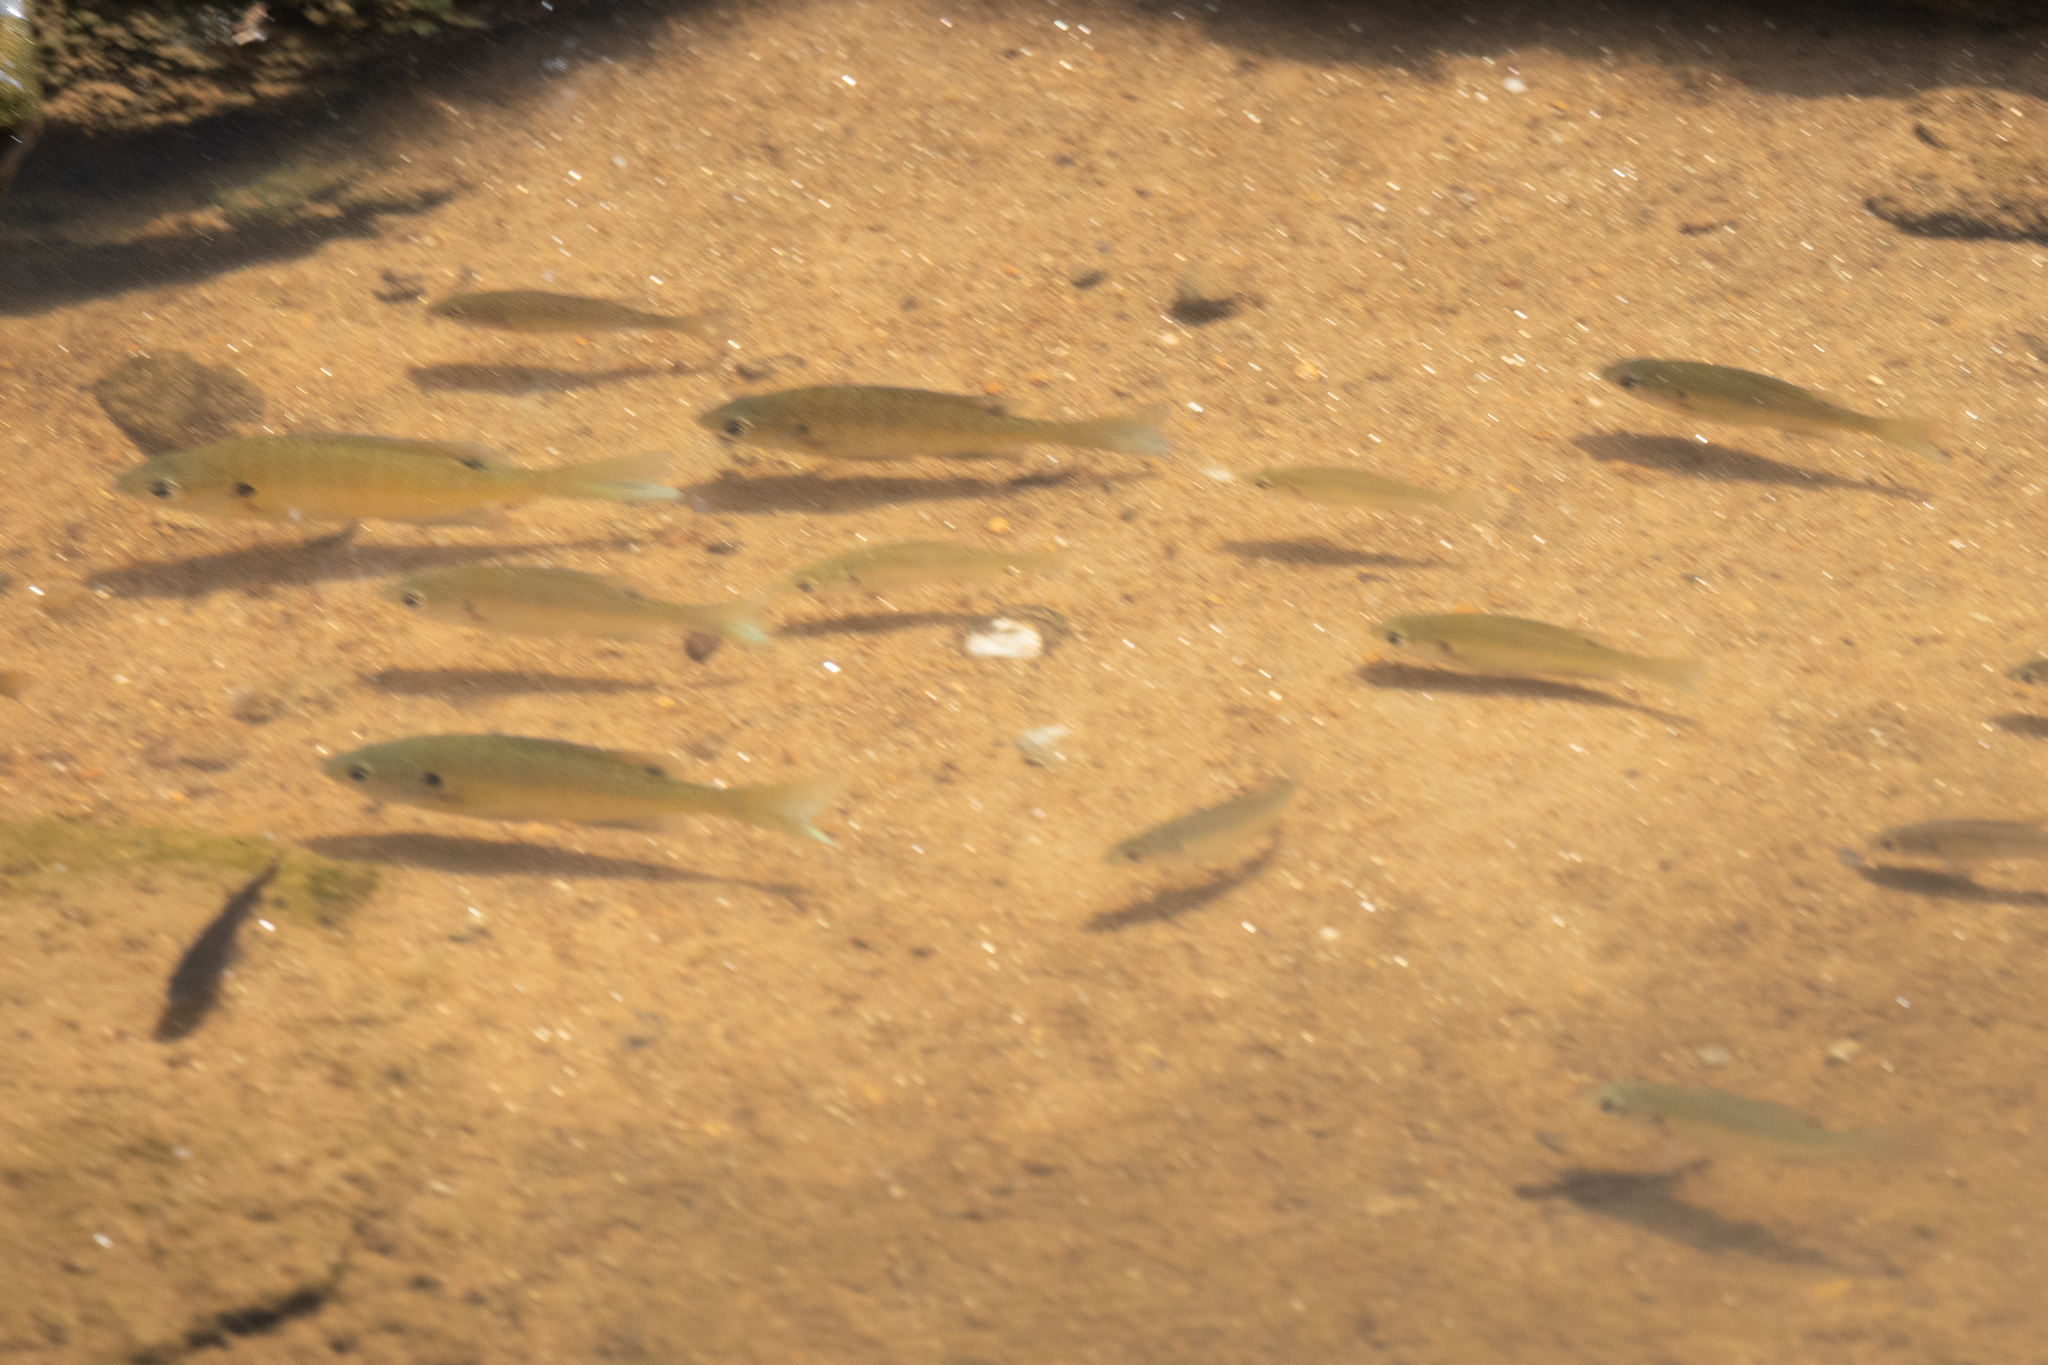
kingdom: Animalia
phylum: Chordata
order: Perciformes
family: Centrarchidae
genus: Lepomis
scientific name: Lepomis macrochirus
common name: Bluegill
